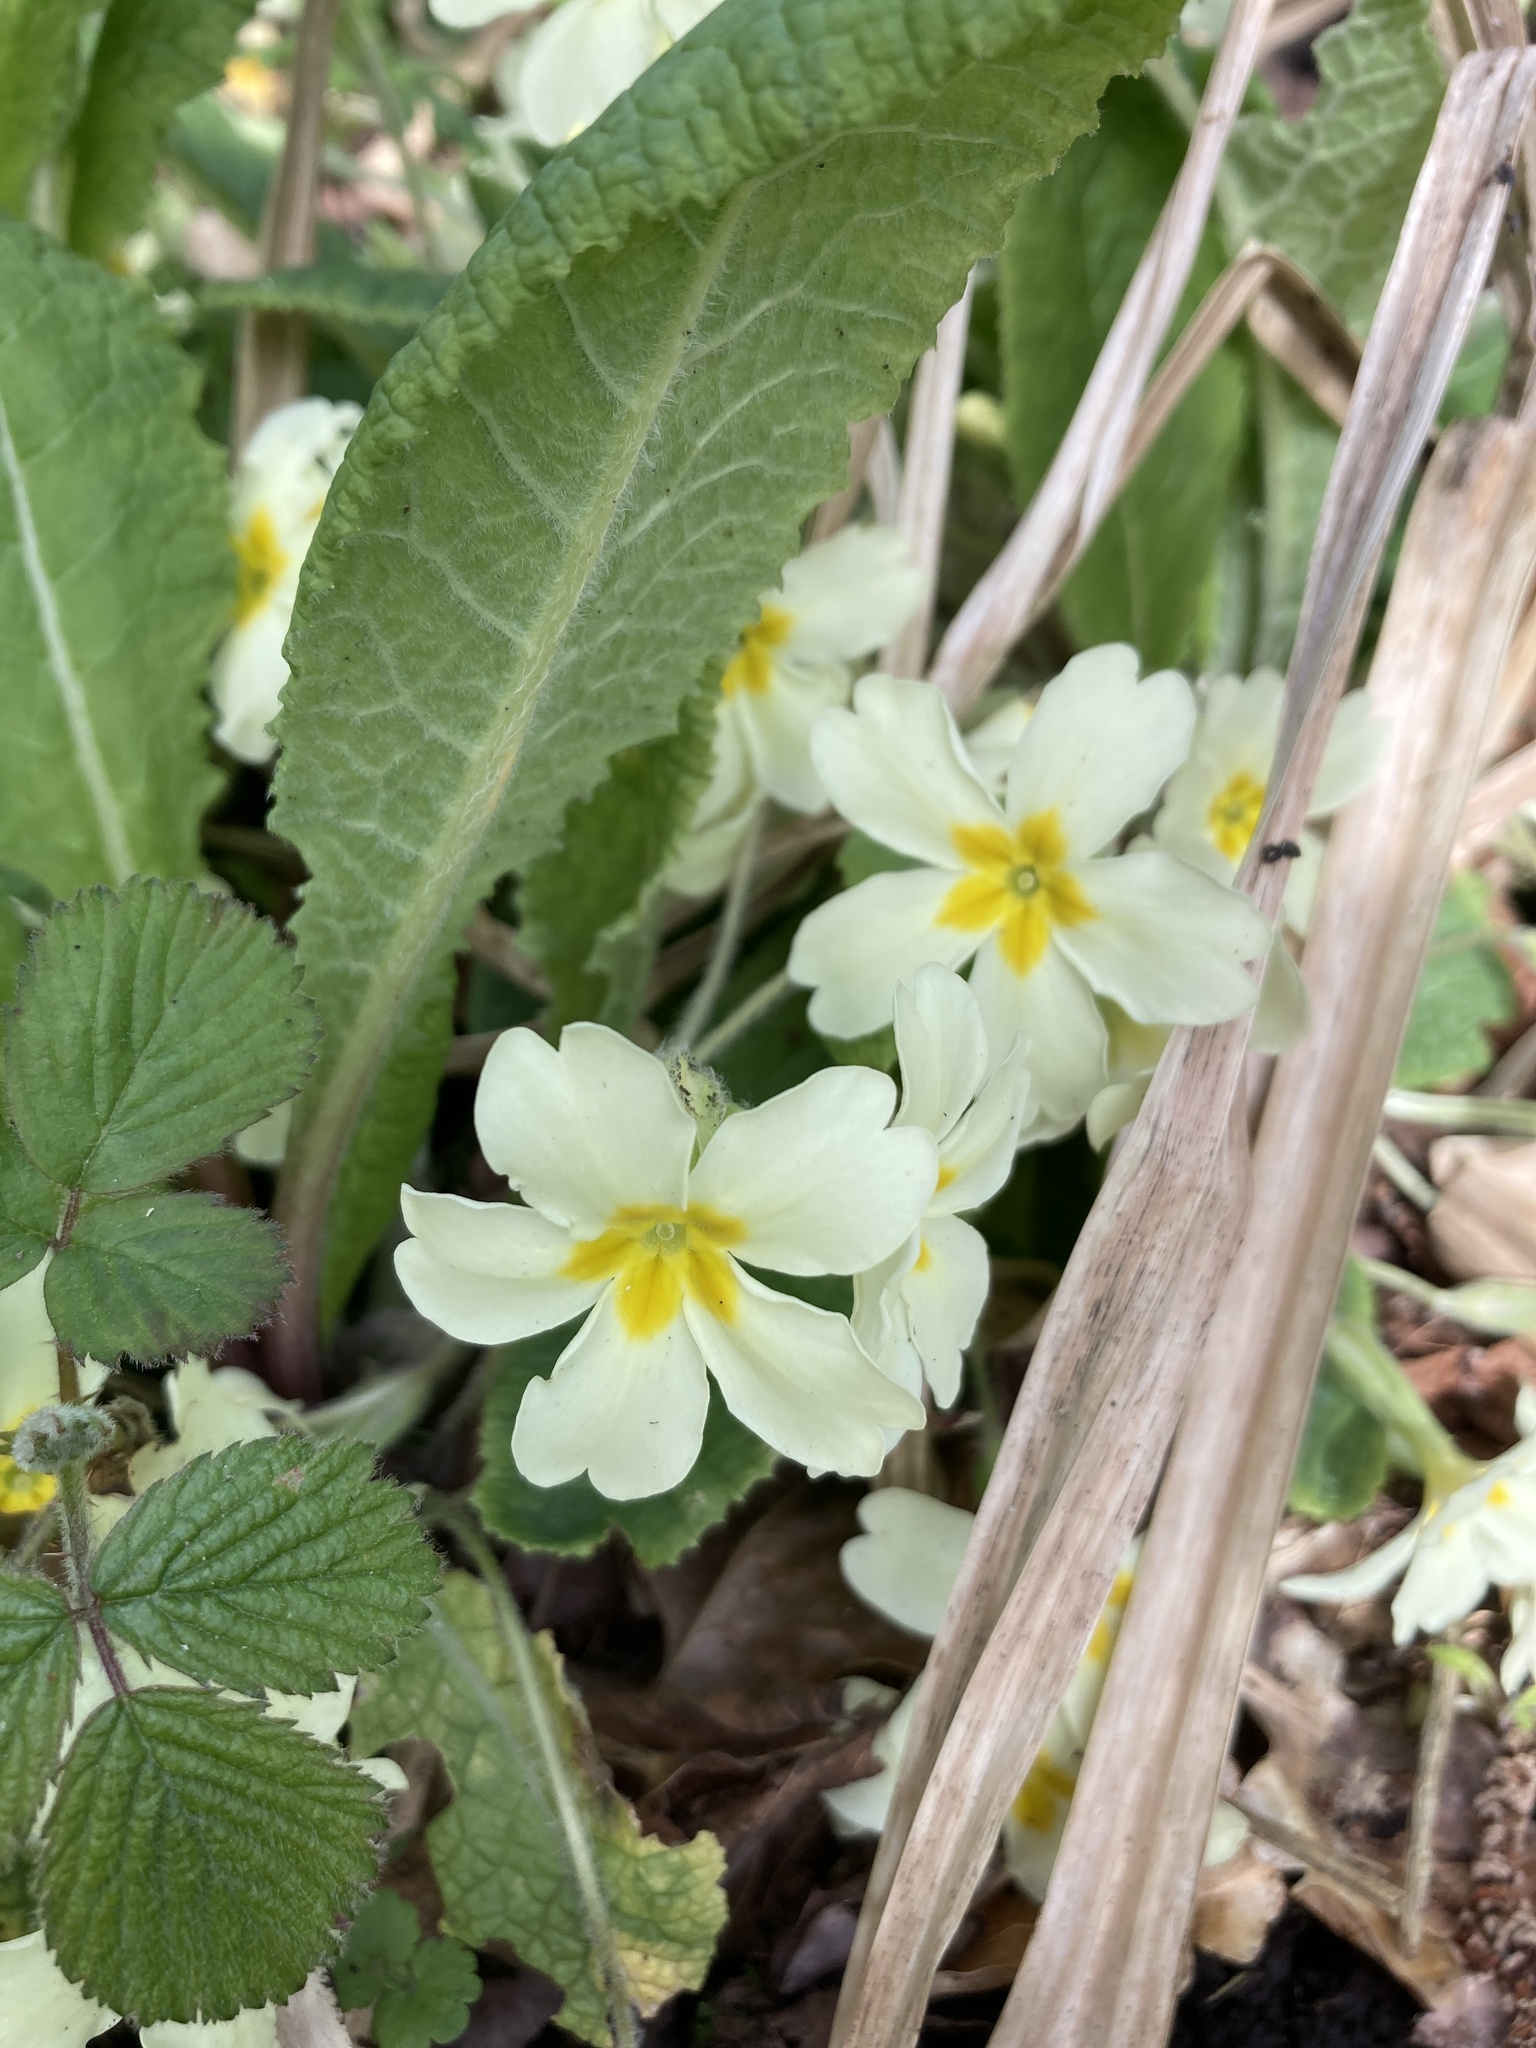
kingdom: Plantae
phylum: Tracheophyta
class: Magnoliopsida
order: Ericales
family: Primulaceae
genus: Primula
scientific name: Primula vulgaris
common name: Primrose
